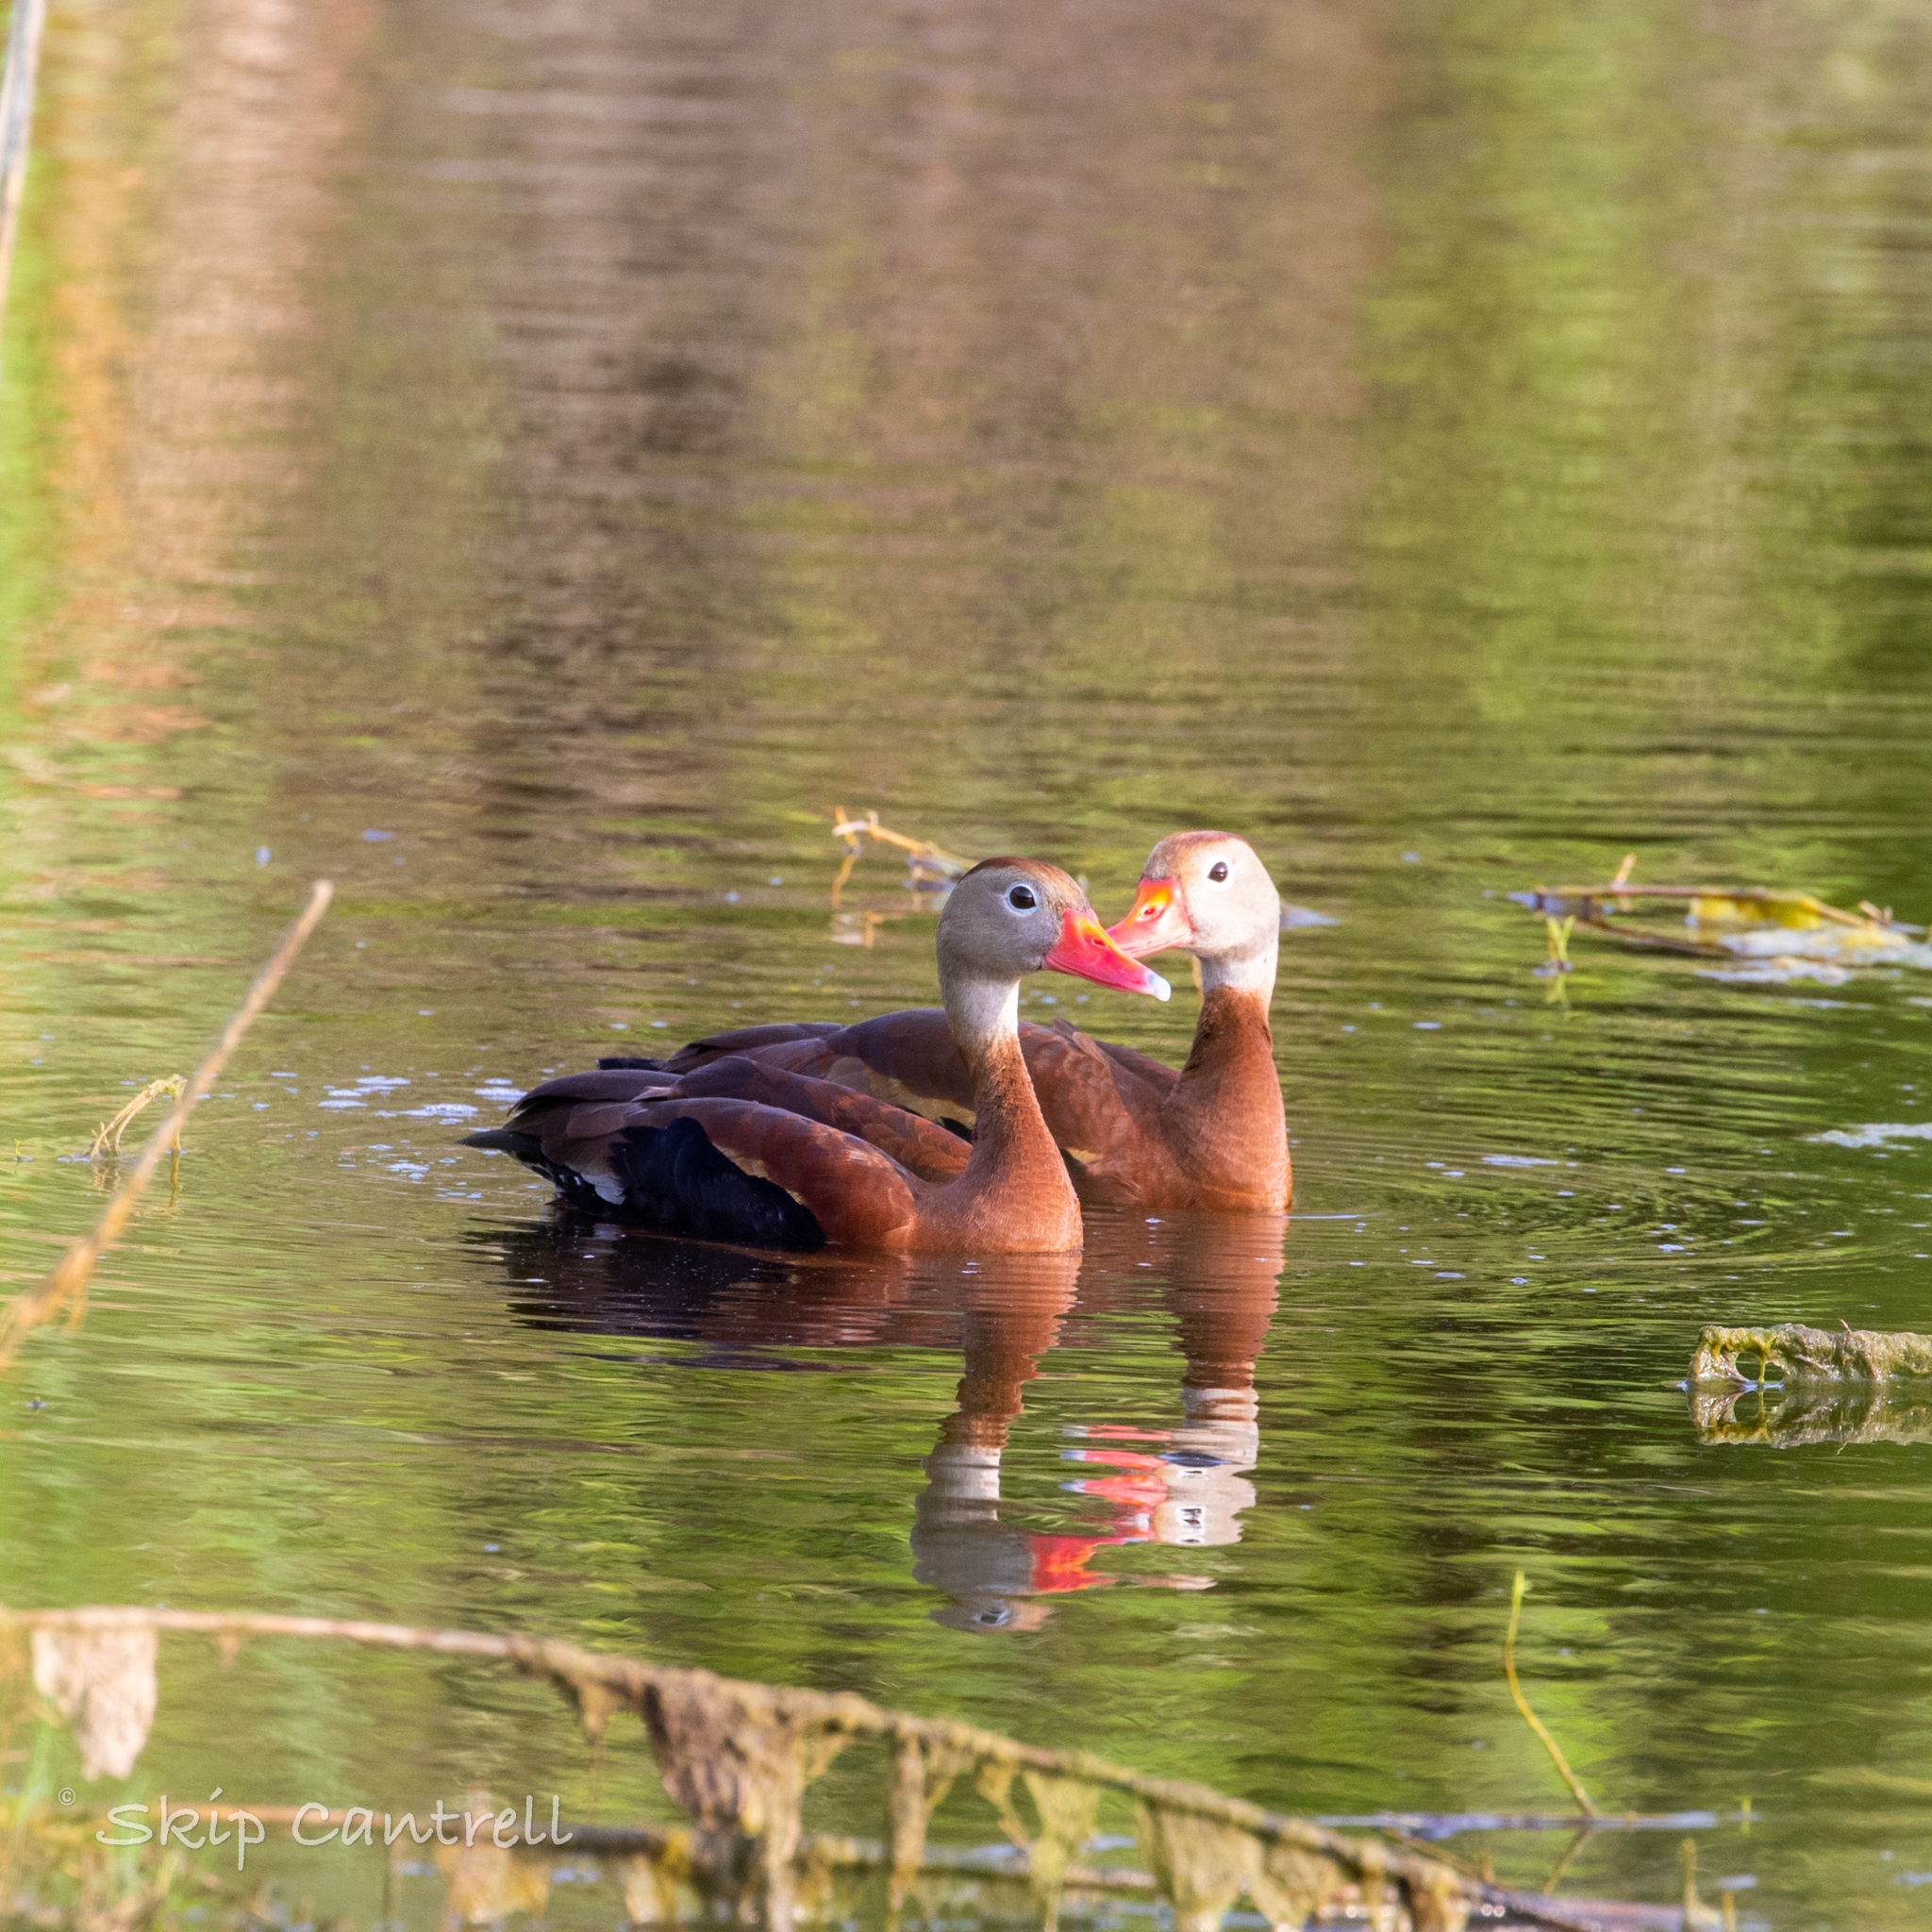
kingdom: Animalia
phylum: Chordata
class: Aves
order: Anseriformes
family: Anatidae
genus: Dendrocygna
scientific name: Dendrocygna autumnalis
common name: Black-bellied whistling duck
